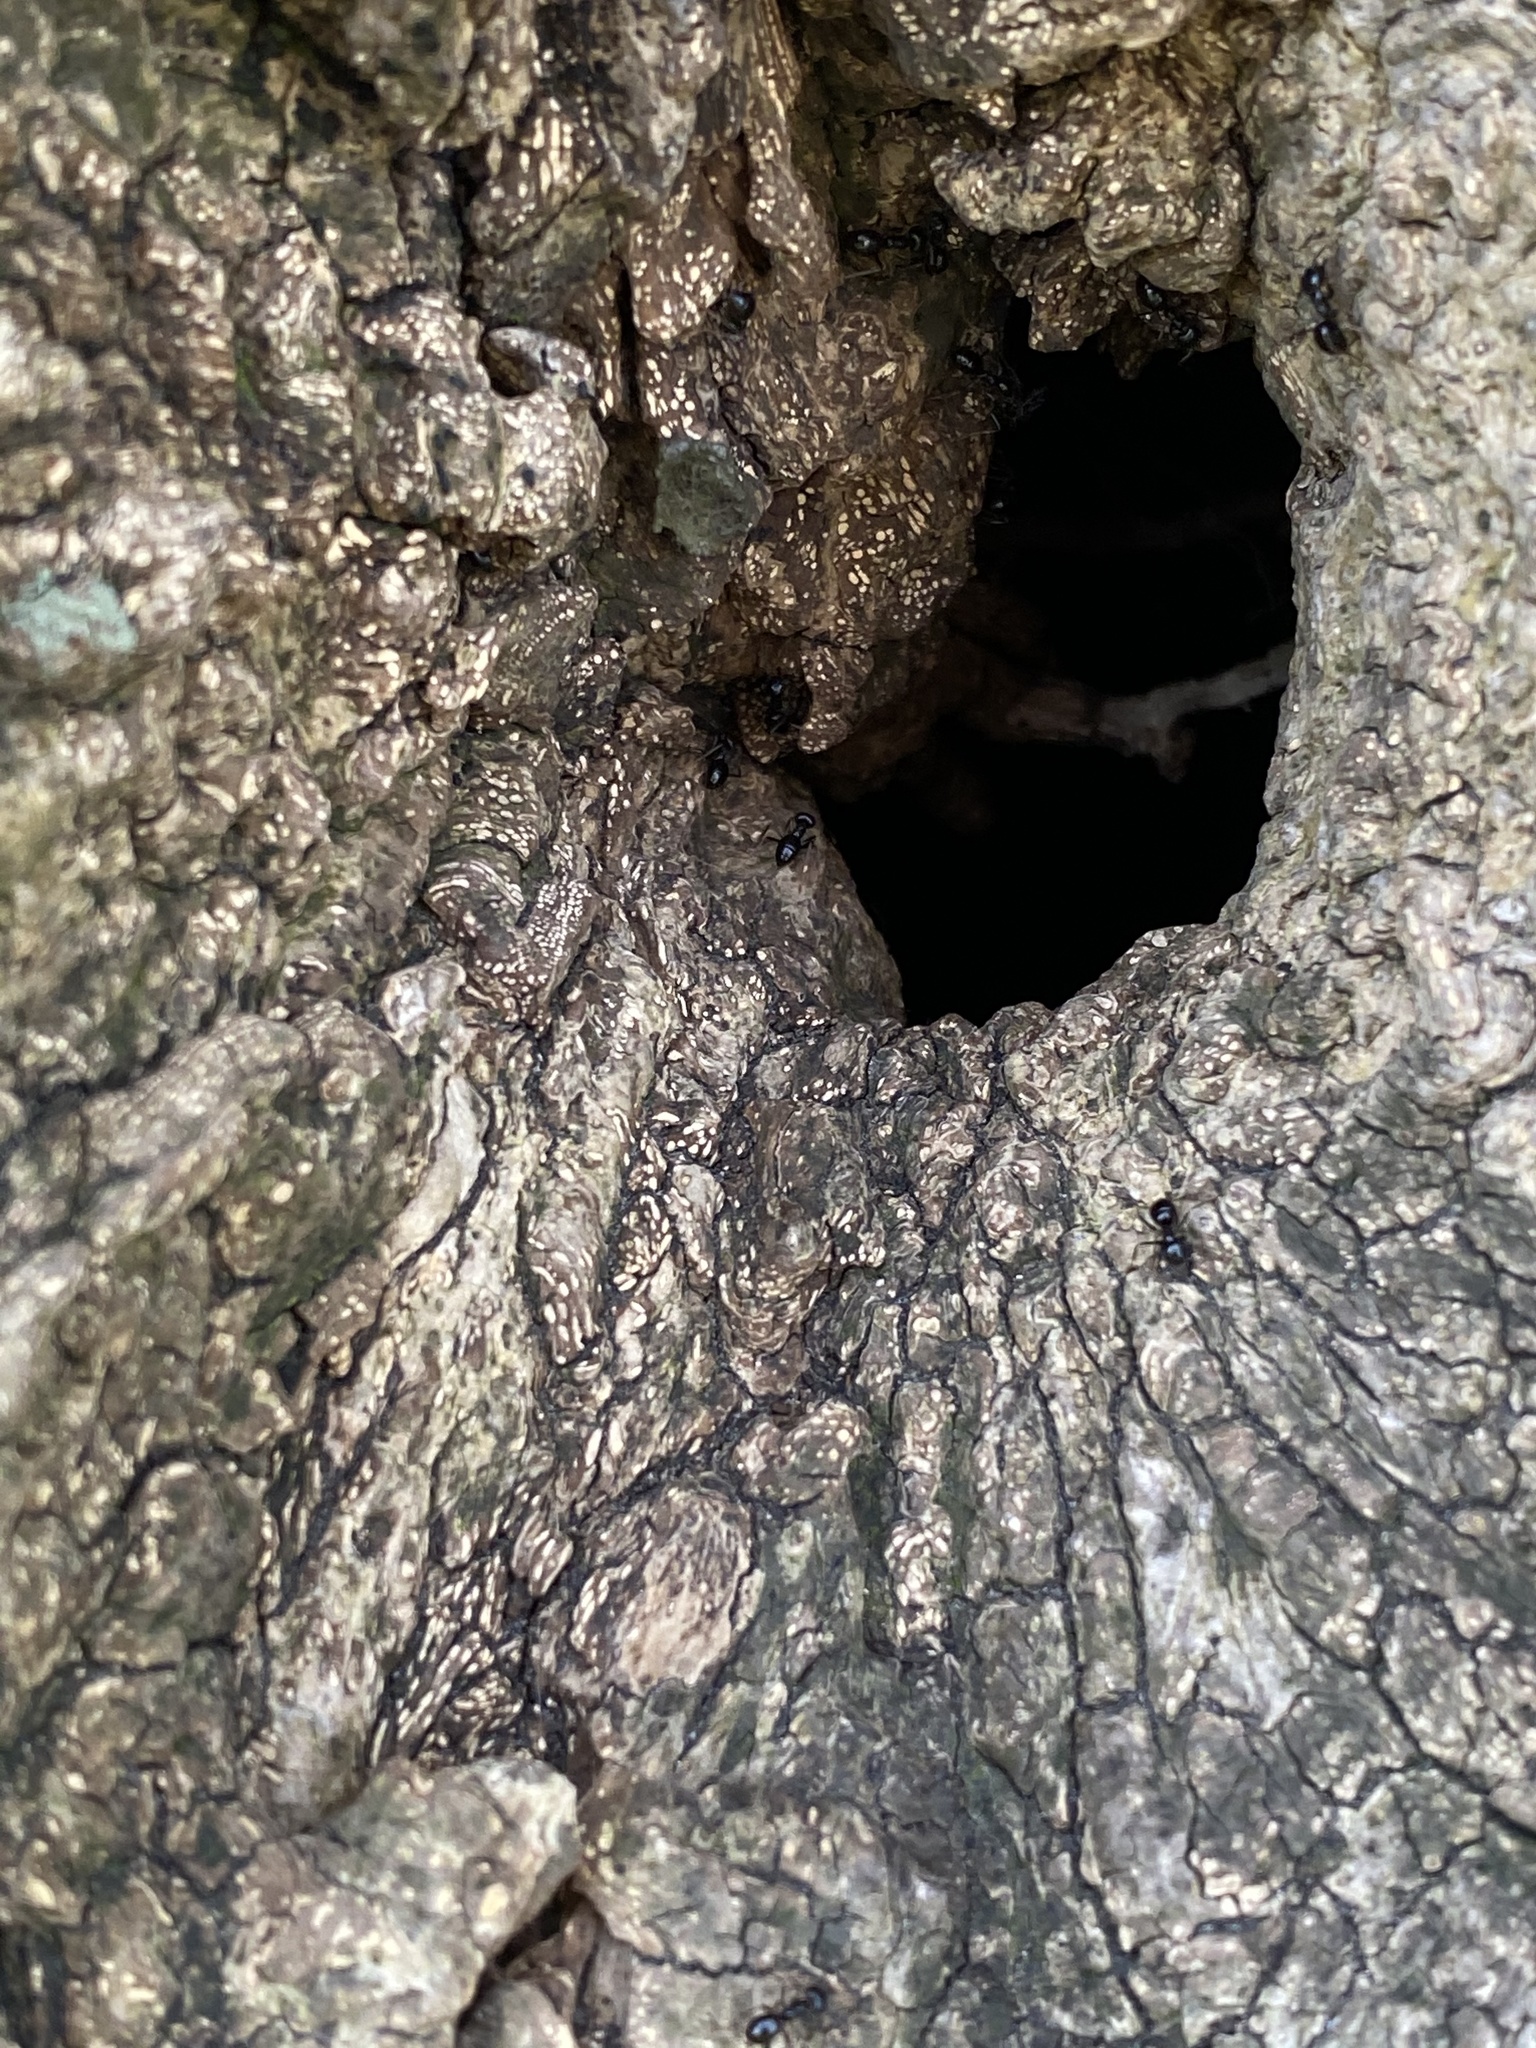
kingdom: Animalia
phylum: Arthropoda
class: Insecta
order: Hymenoptera
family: Formicidae
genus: Lasius
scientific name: Lasius fuliginosus
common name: Jet ant
